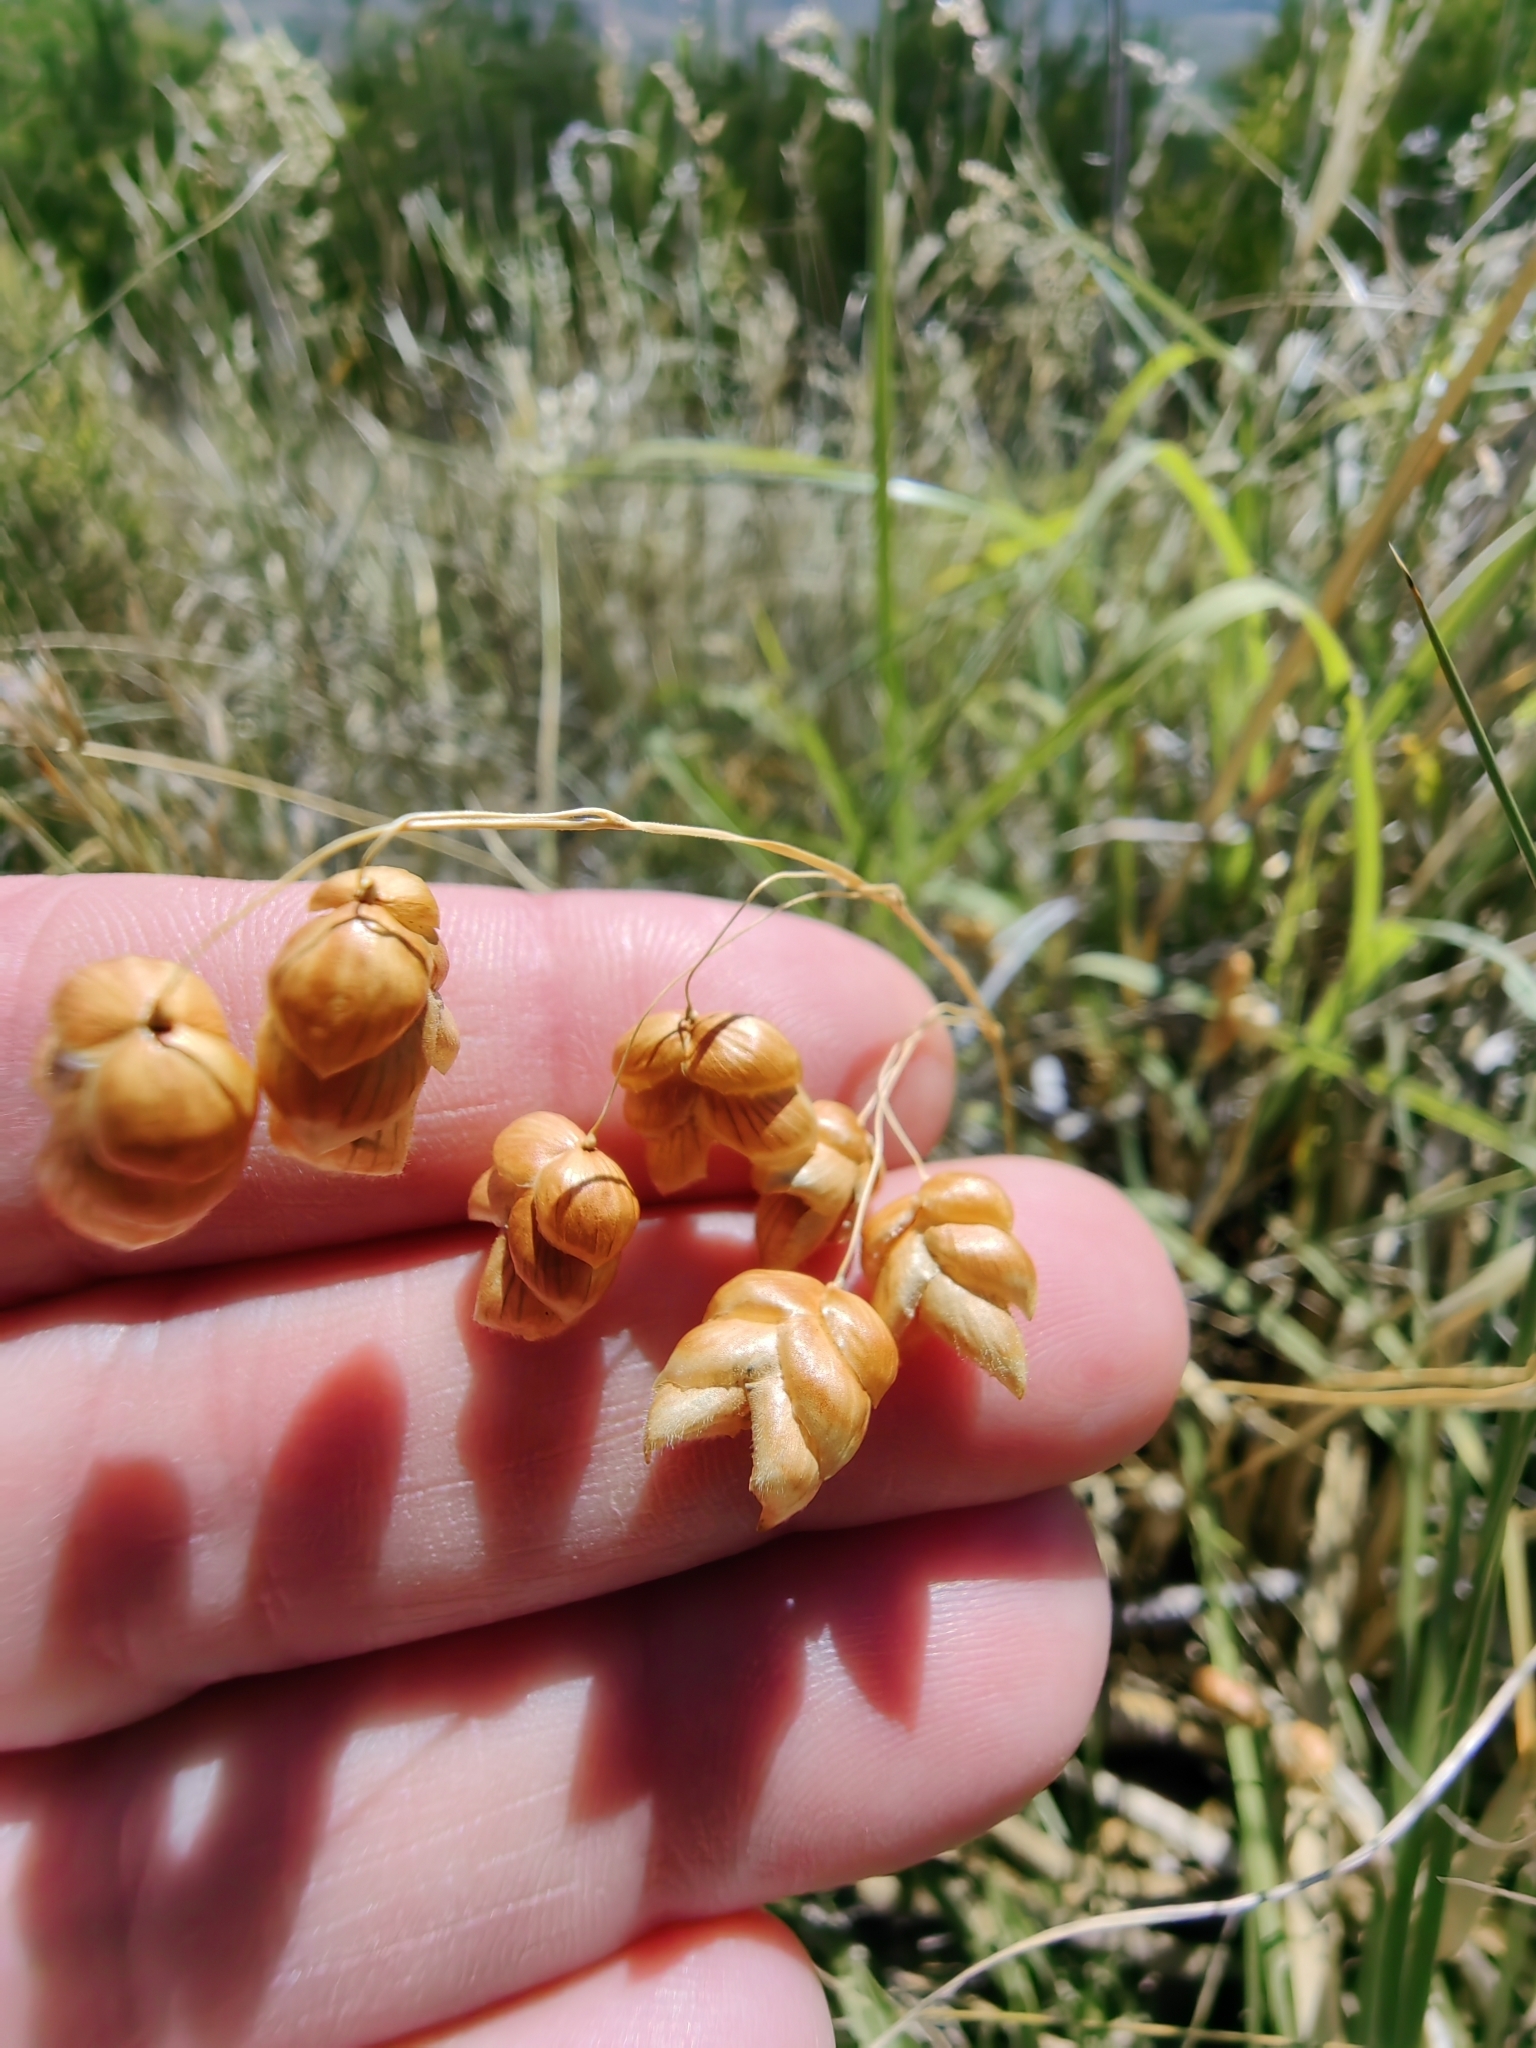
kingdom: Plantae
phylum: Tracheophyta
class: Liliopsida
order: Poales
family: Poaceae
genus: Briza
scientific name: Briza maxima
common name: Big quakinggrass
